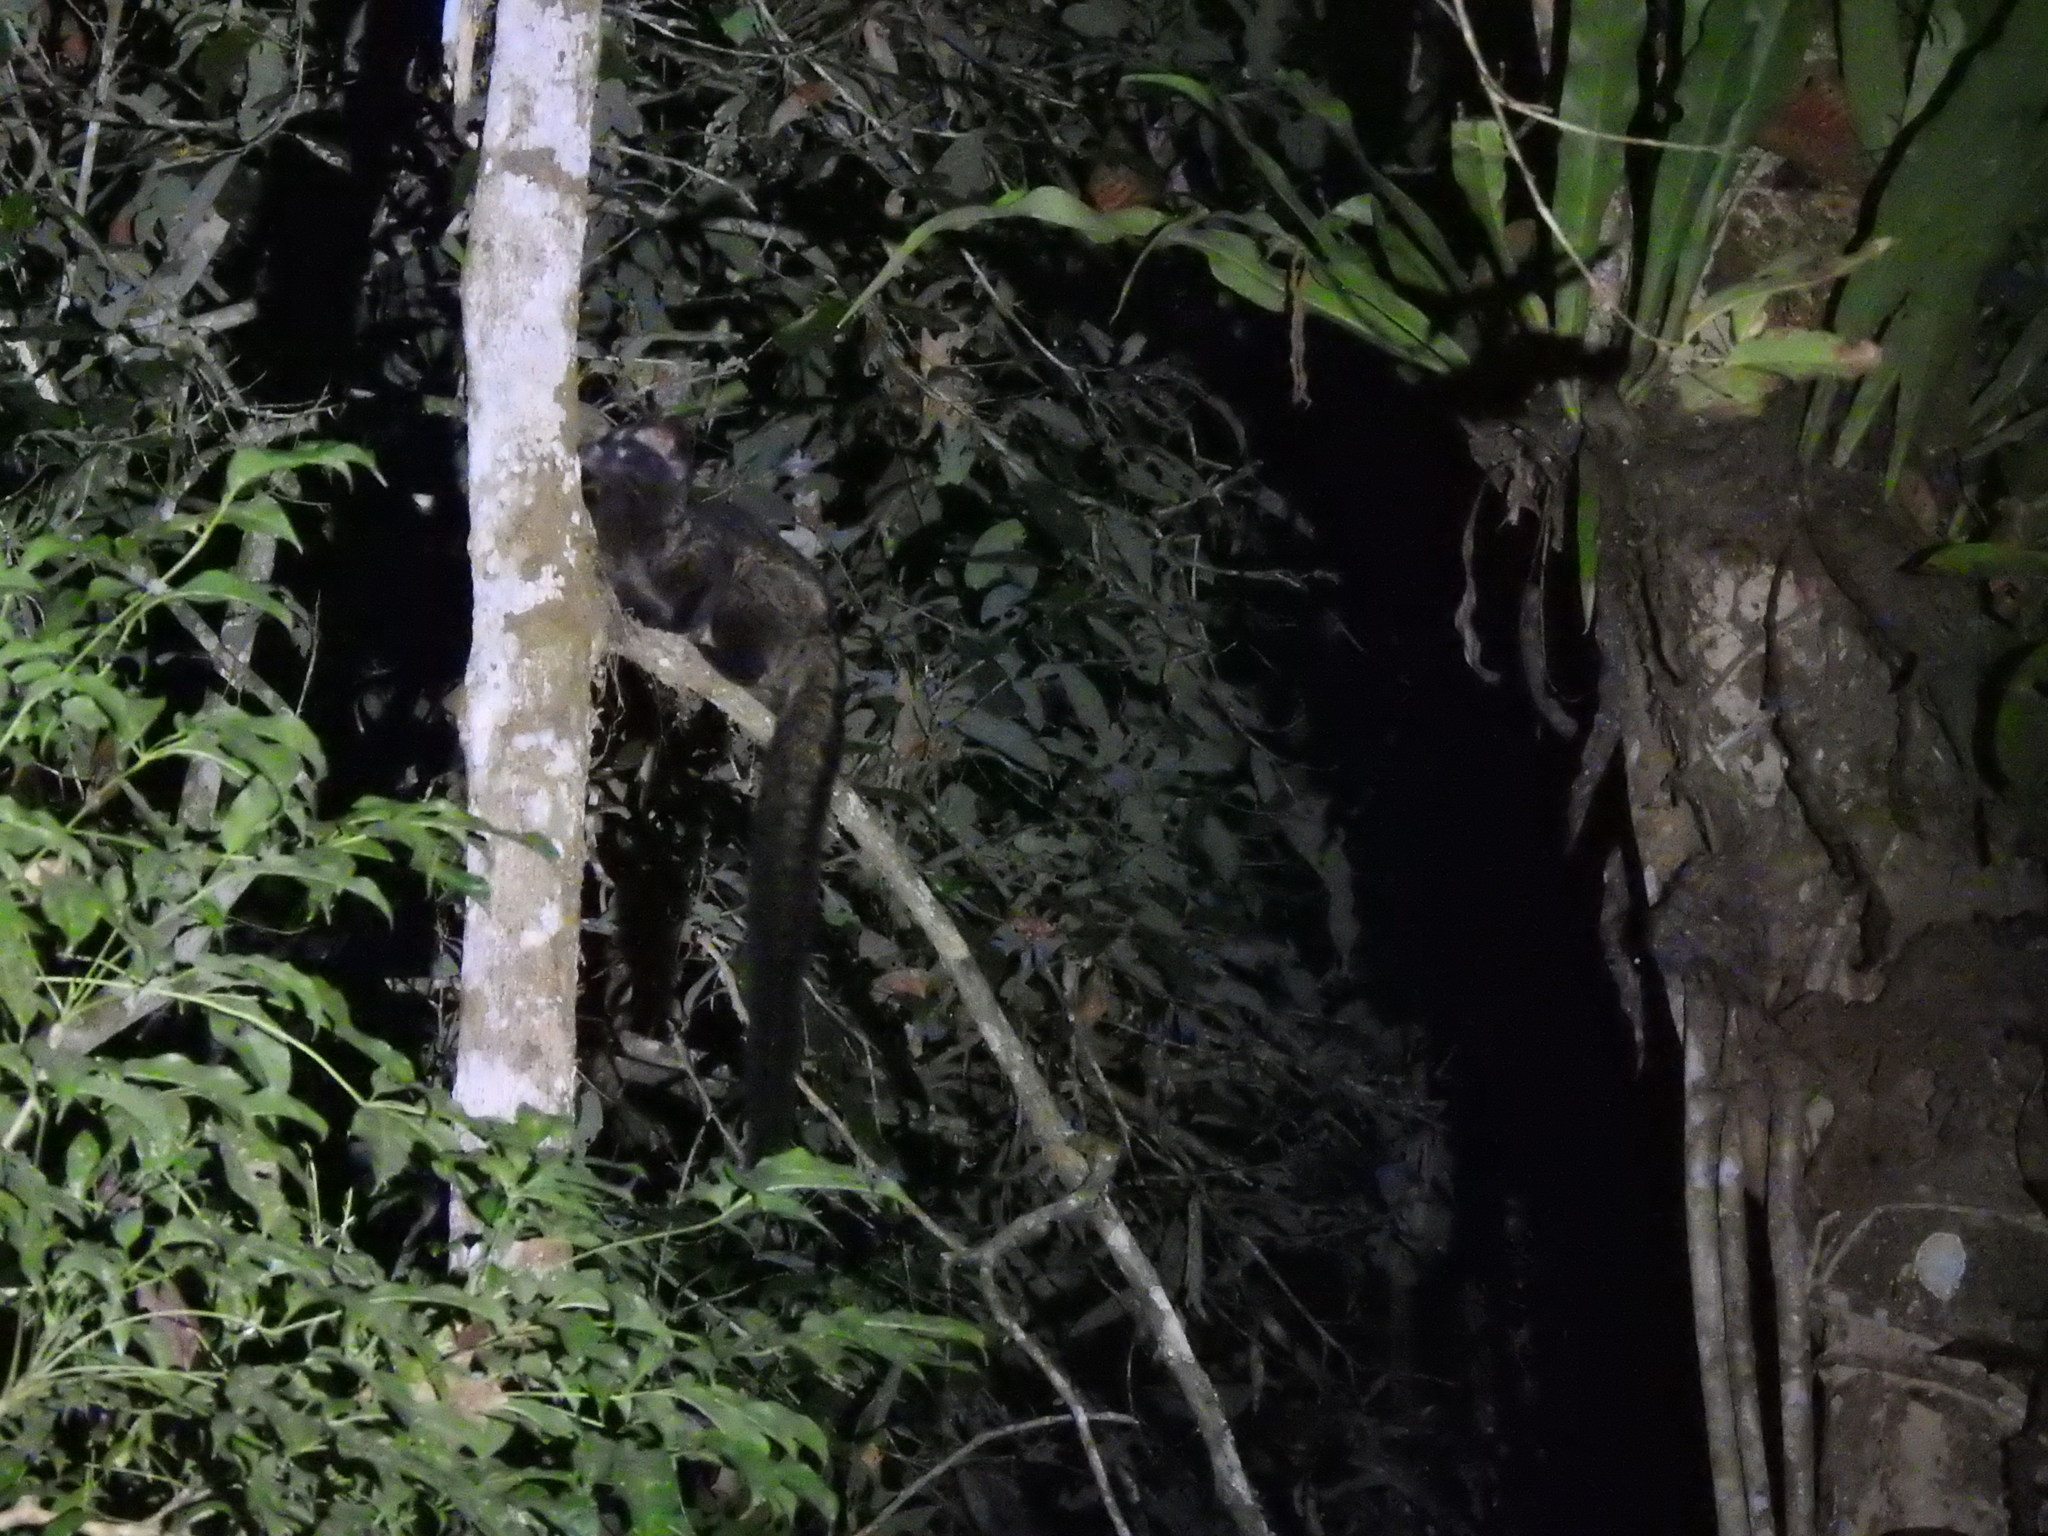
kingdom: Animalia
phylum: Chordata
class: Mammalia
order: Carnivora
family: Viverridae
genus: Paradoxurus
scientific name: Paradoxurus hermaphroditus
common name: Common palm civet
